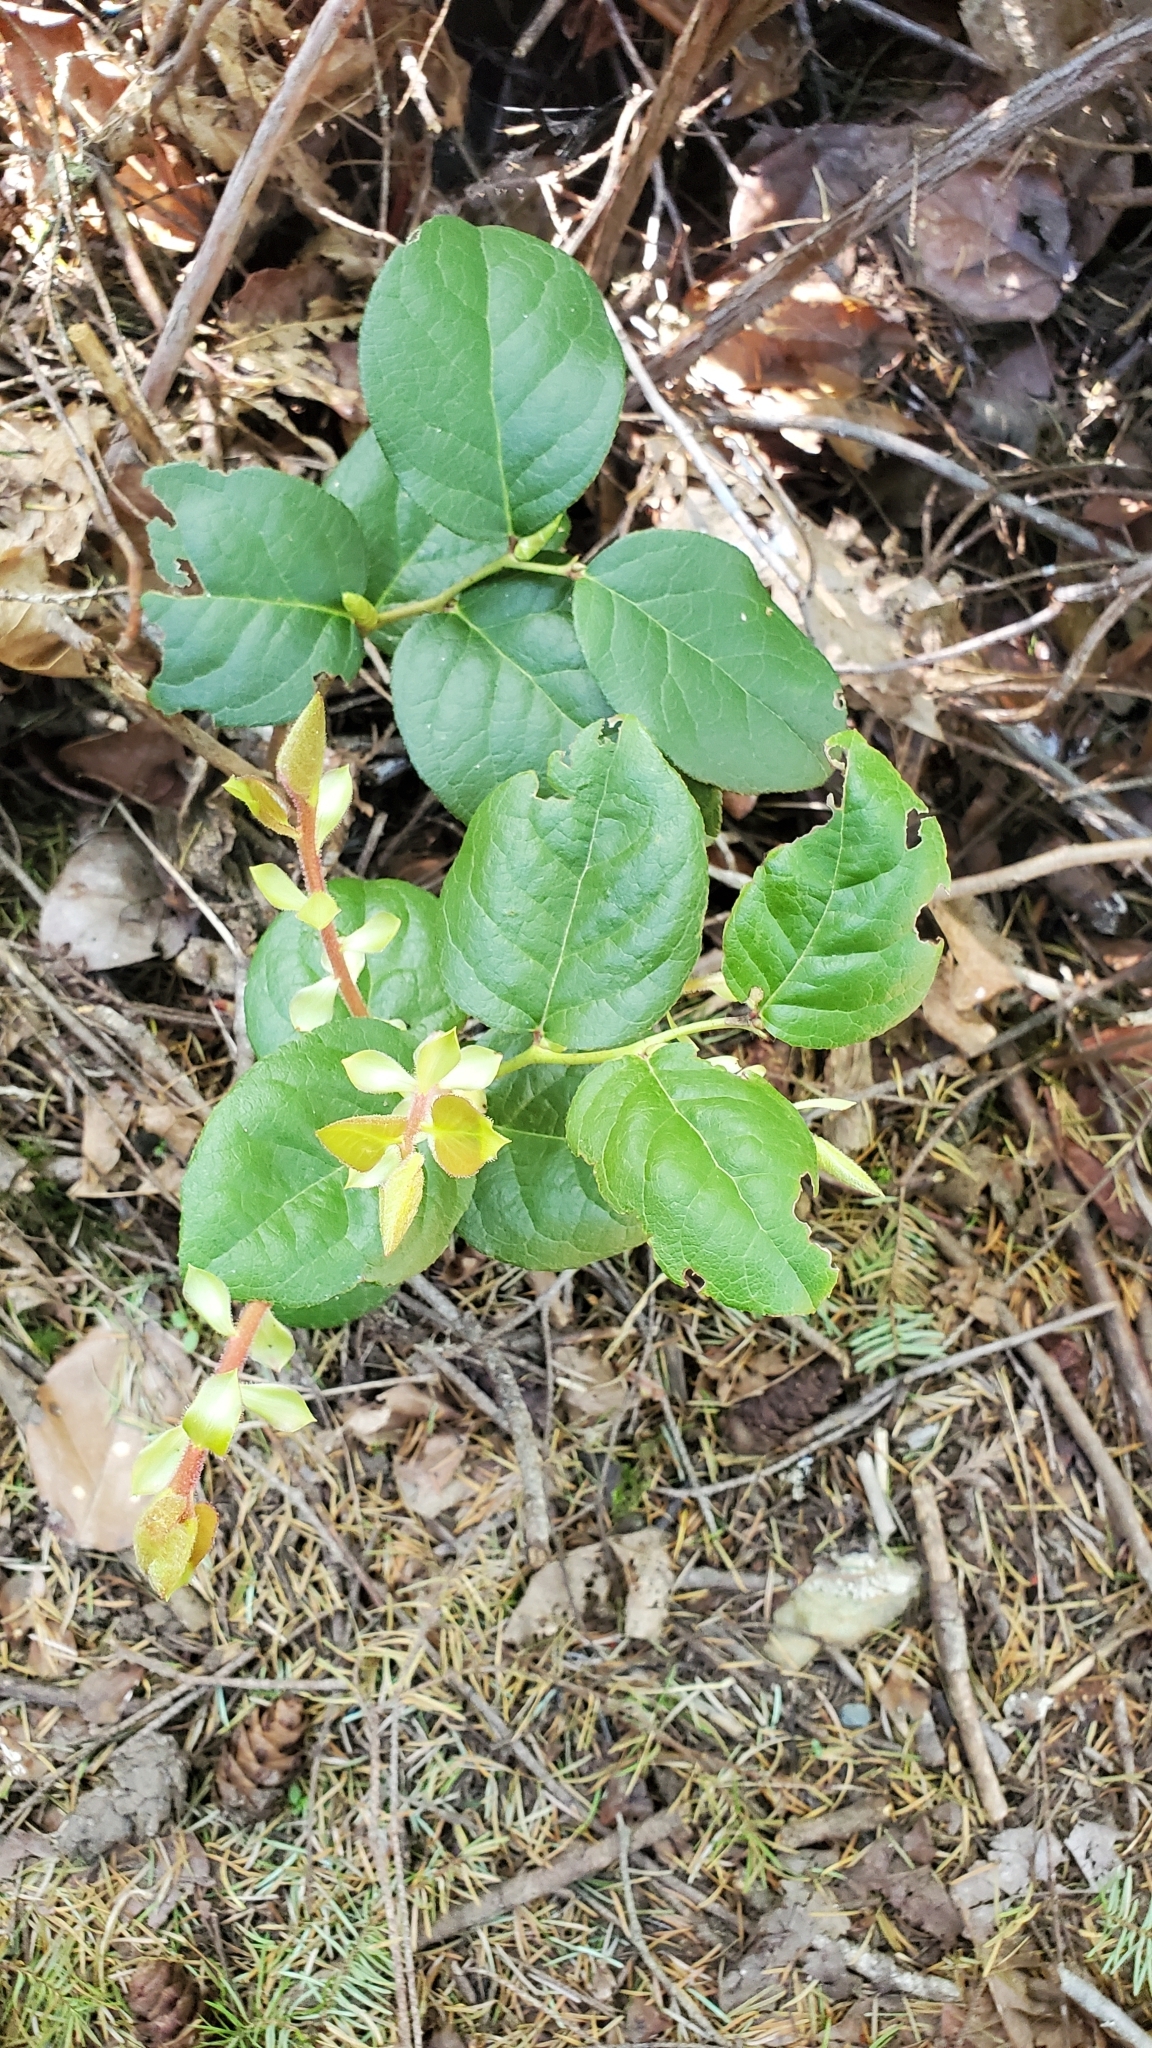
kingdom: Plantae
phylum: Tracheophyta
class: Magnoliopsida
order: Ericales
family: Ericaceae
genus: Gaultheria
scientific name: Gaultheria shallon
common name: Shallon
